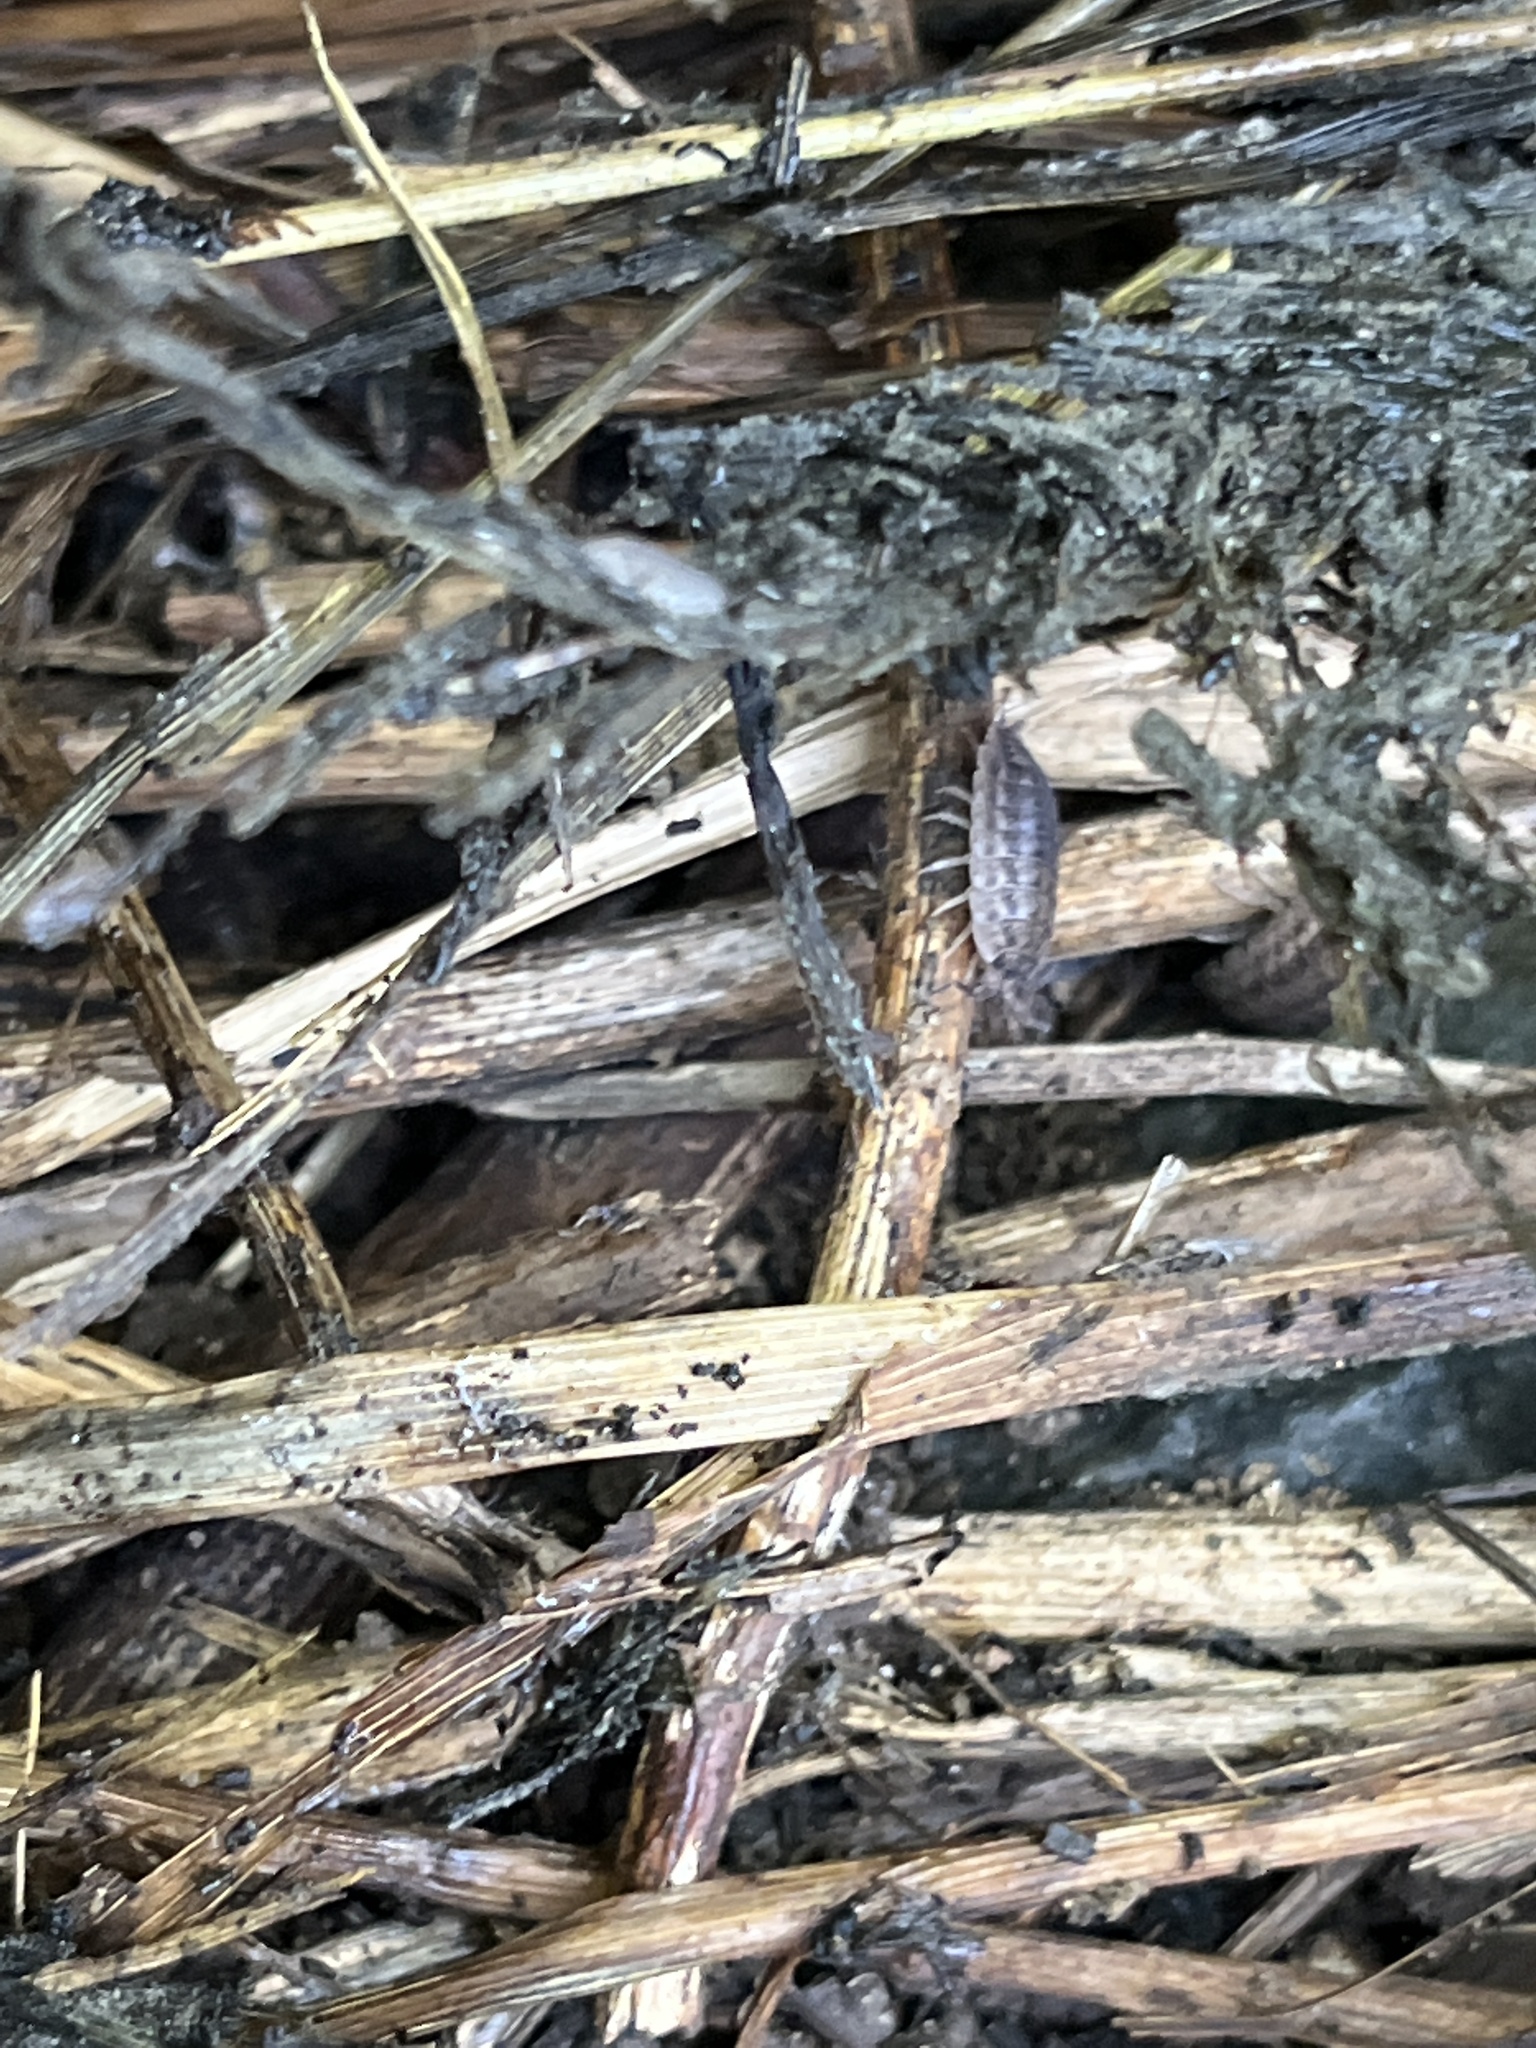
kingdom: Animalia
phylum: Arthropoda
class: Malacostraca
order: Isopoda
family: Oniscidae
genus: Oniscus
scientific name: Oniscus asellus
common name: Common shiny woodlouse
